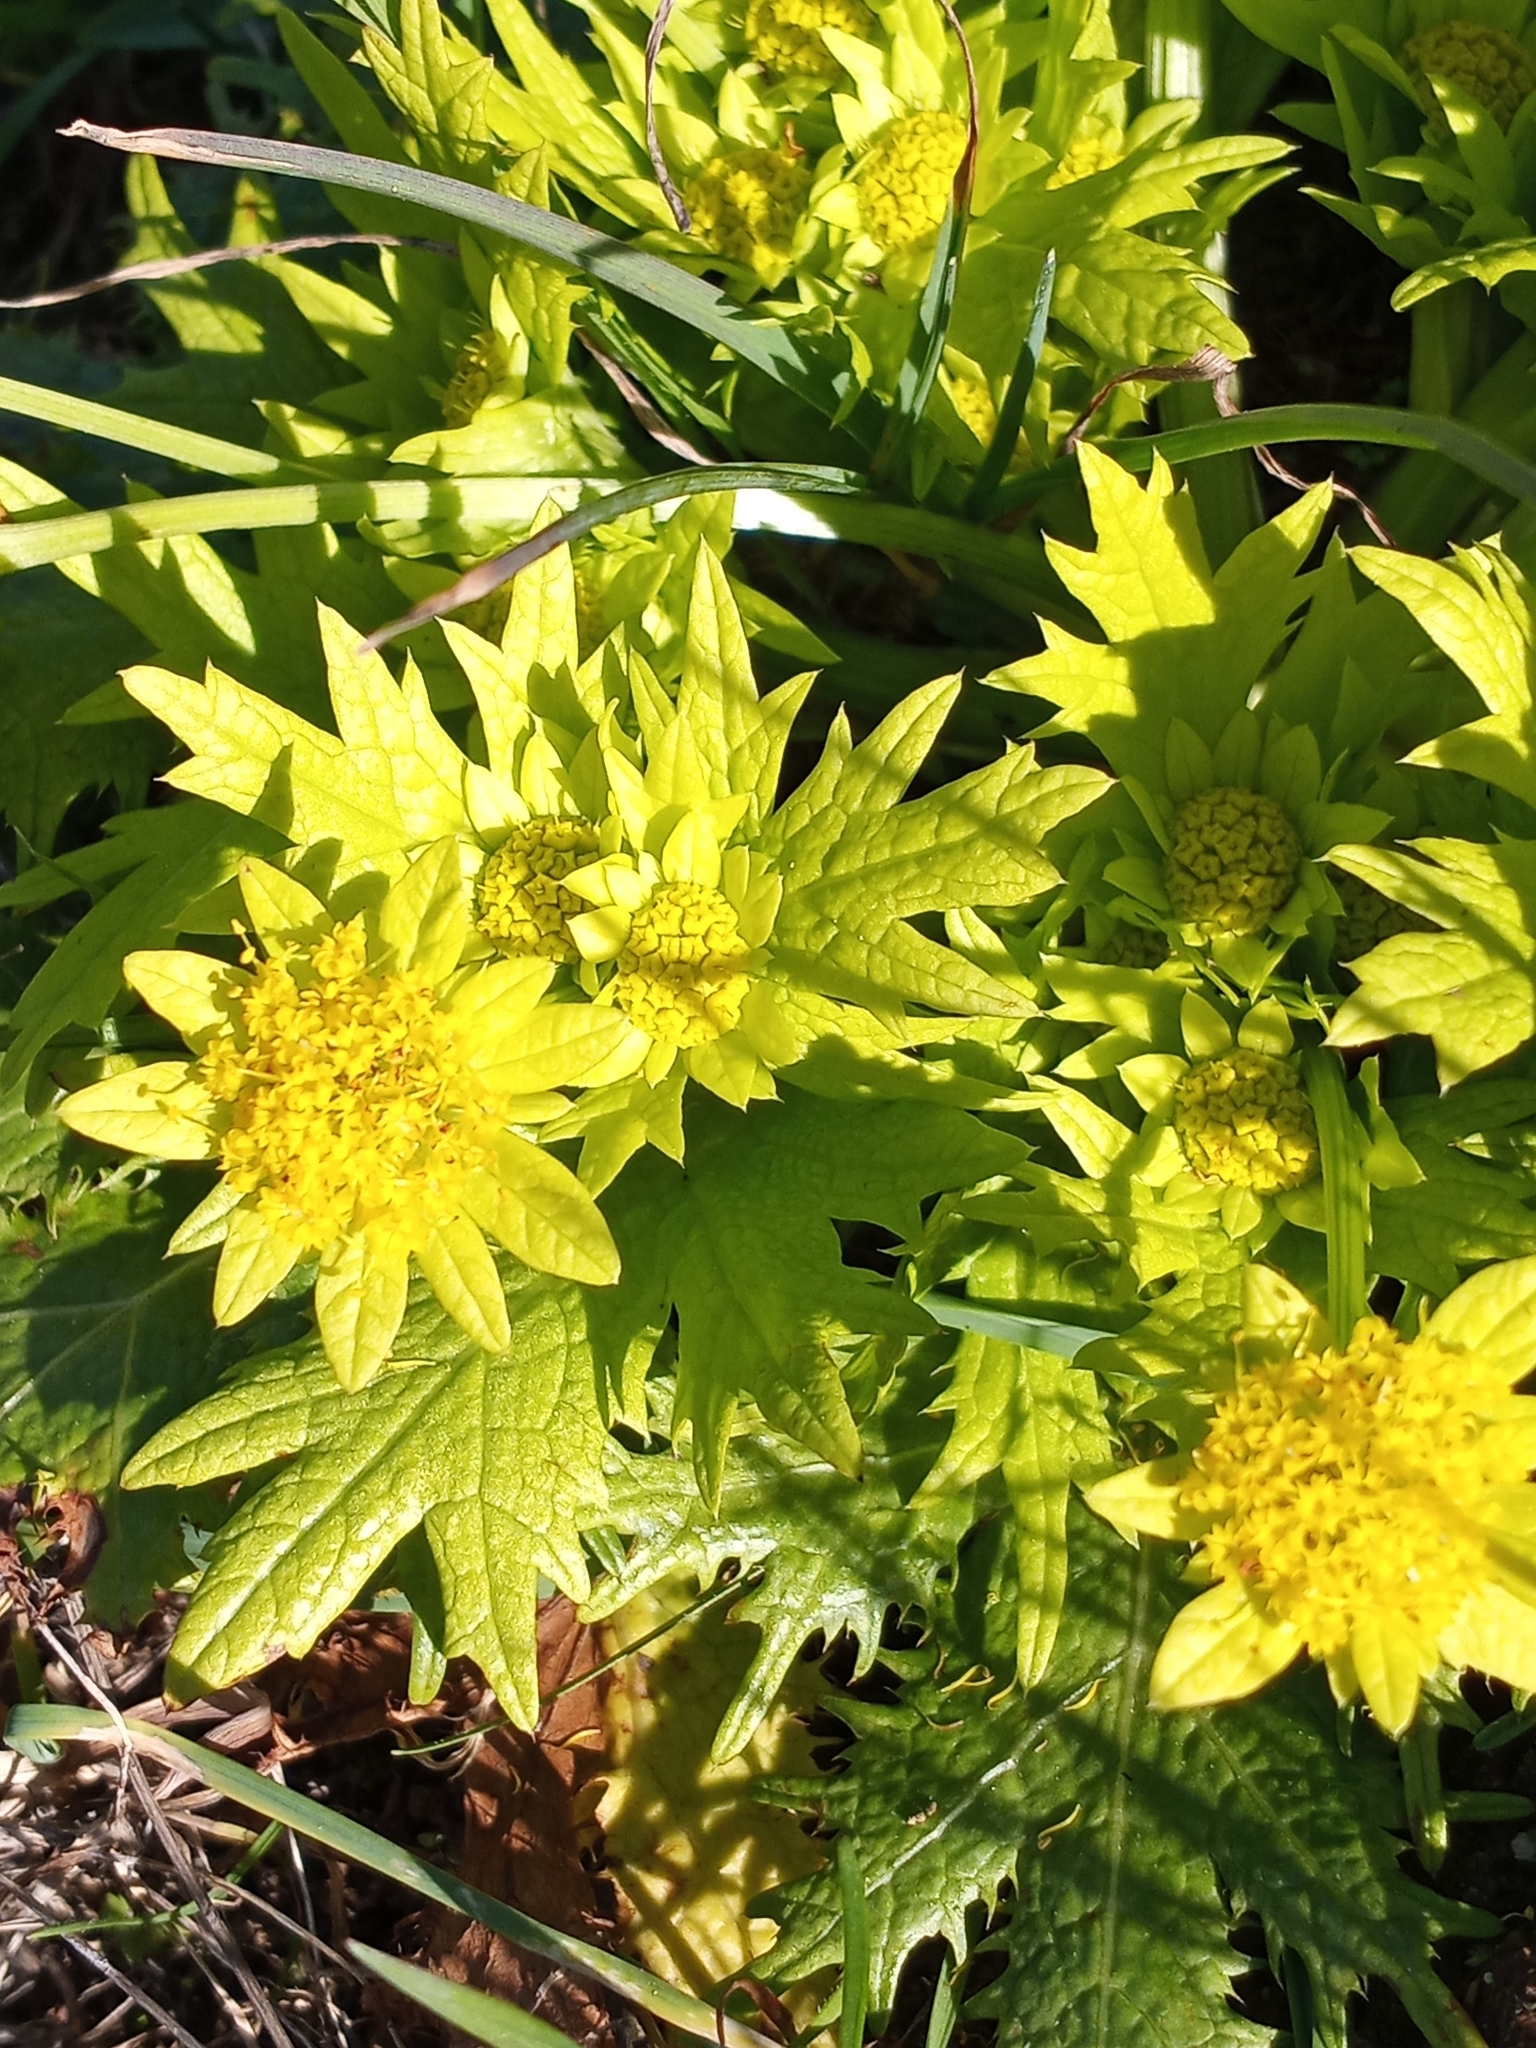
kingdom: Plantae
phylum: Tracheophyta
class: Magnoliopsida
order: Apiales
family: Apiaceae
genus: Sanicula
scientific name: Sanicula arctopoides
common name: Footsteps-of-spring
